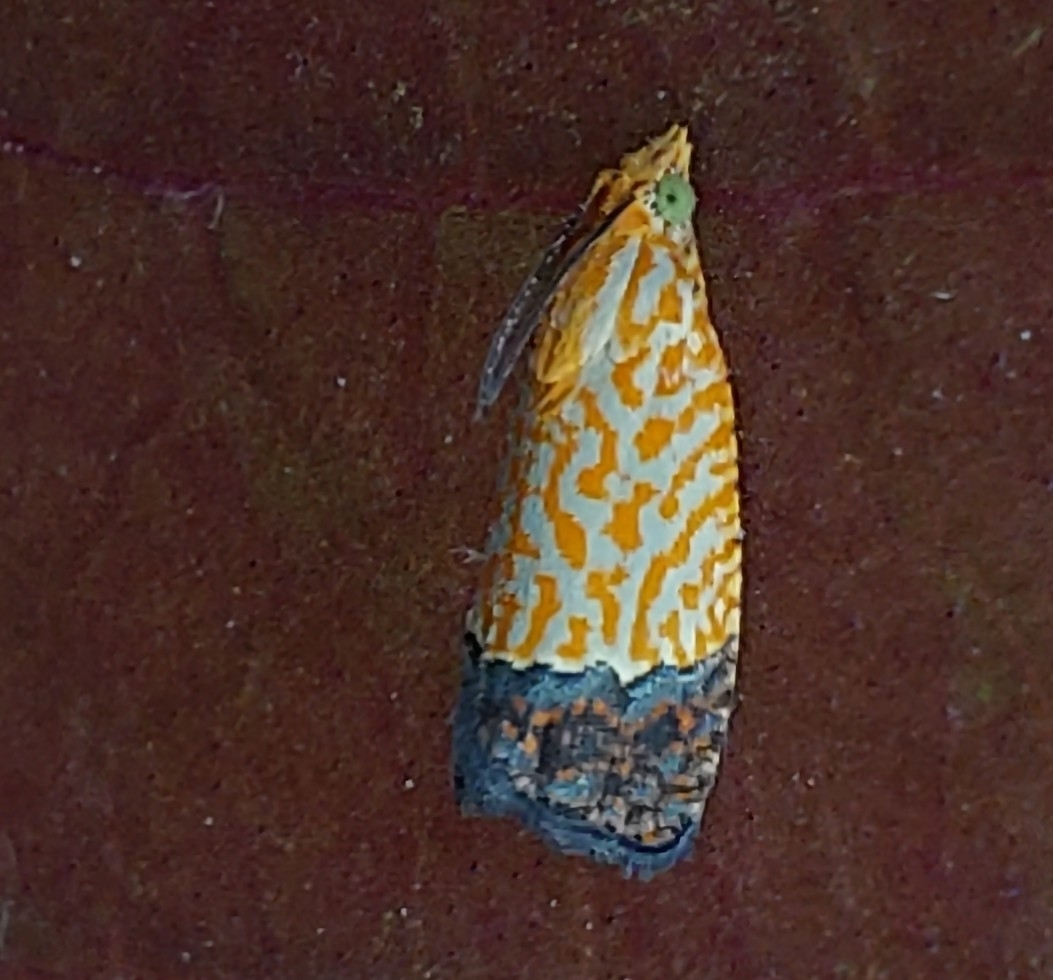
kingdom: Animalia
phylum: Arthropoda
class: Insecta
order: Lepidoptera
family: Tortricidae
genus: Loboschiza
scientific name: Loboschiza koenigiana
